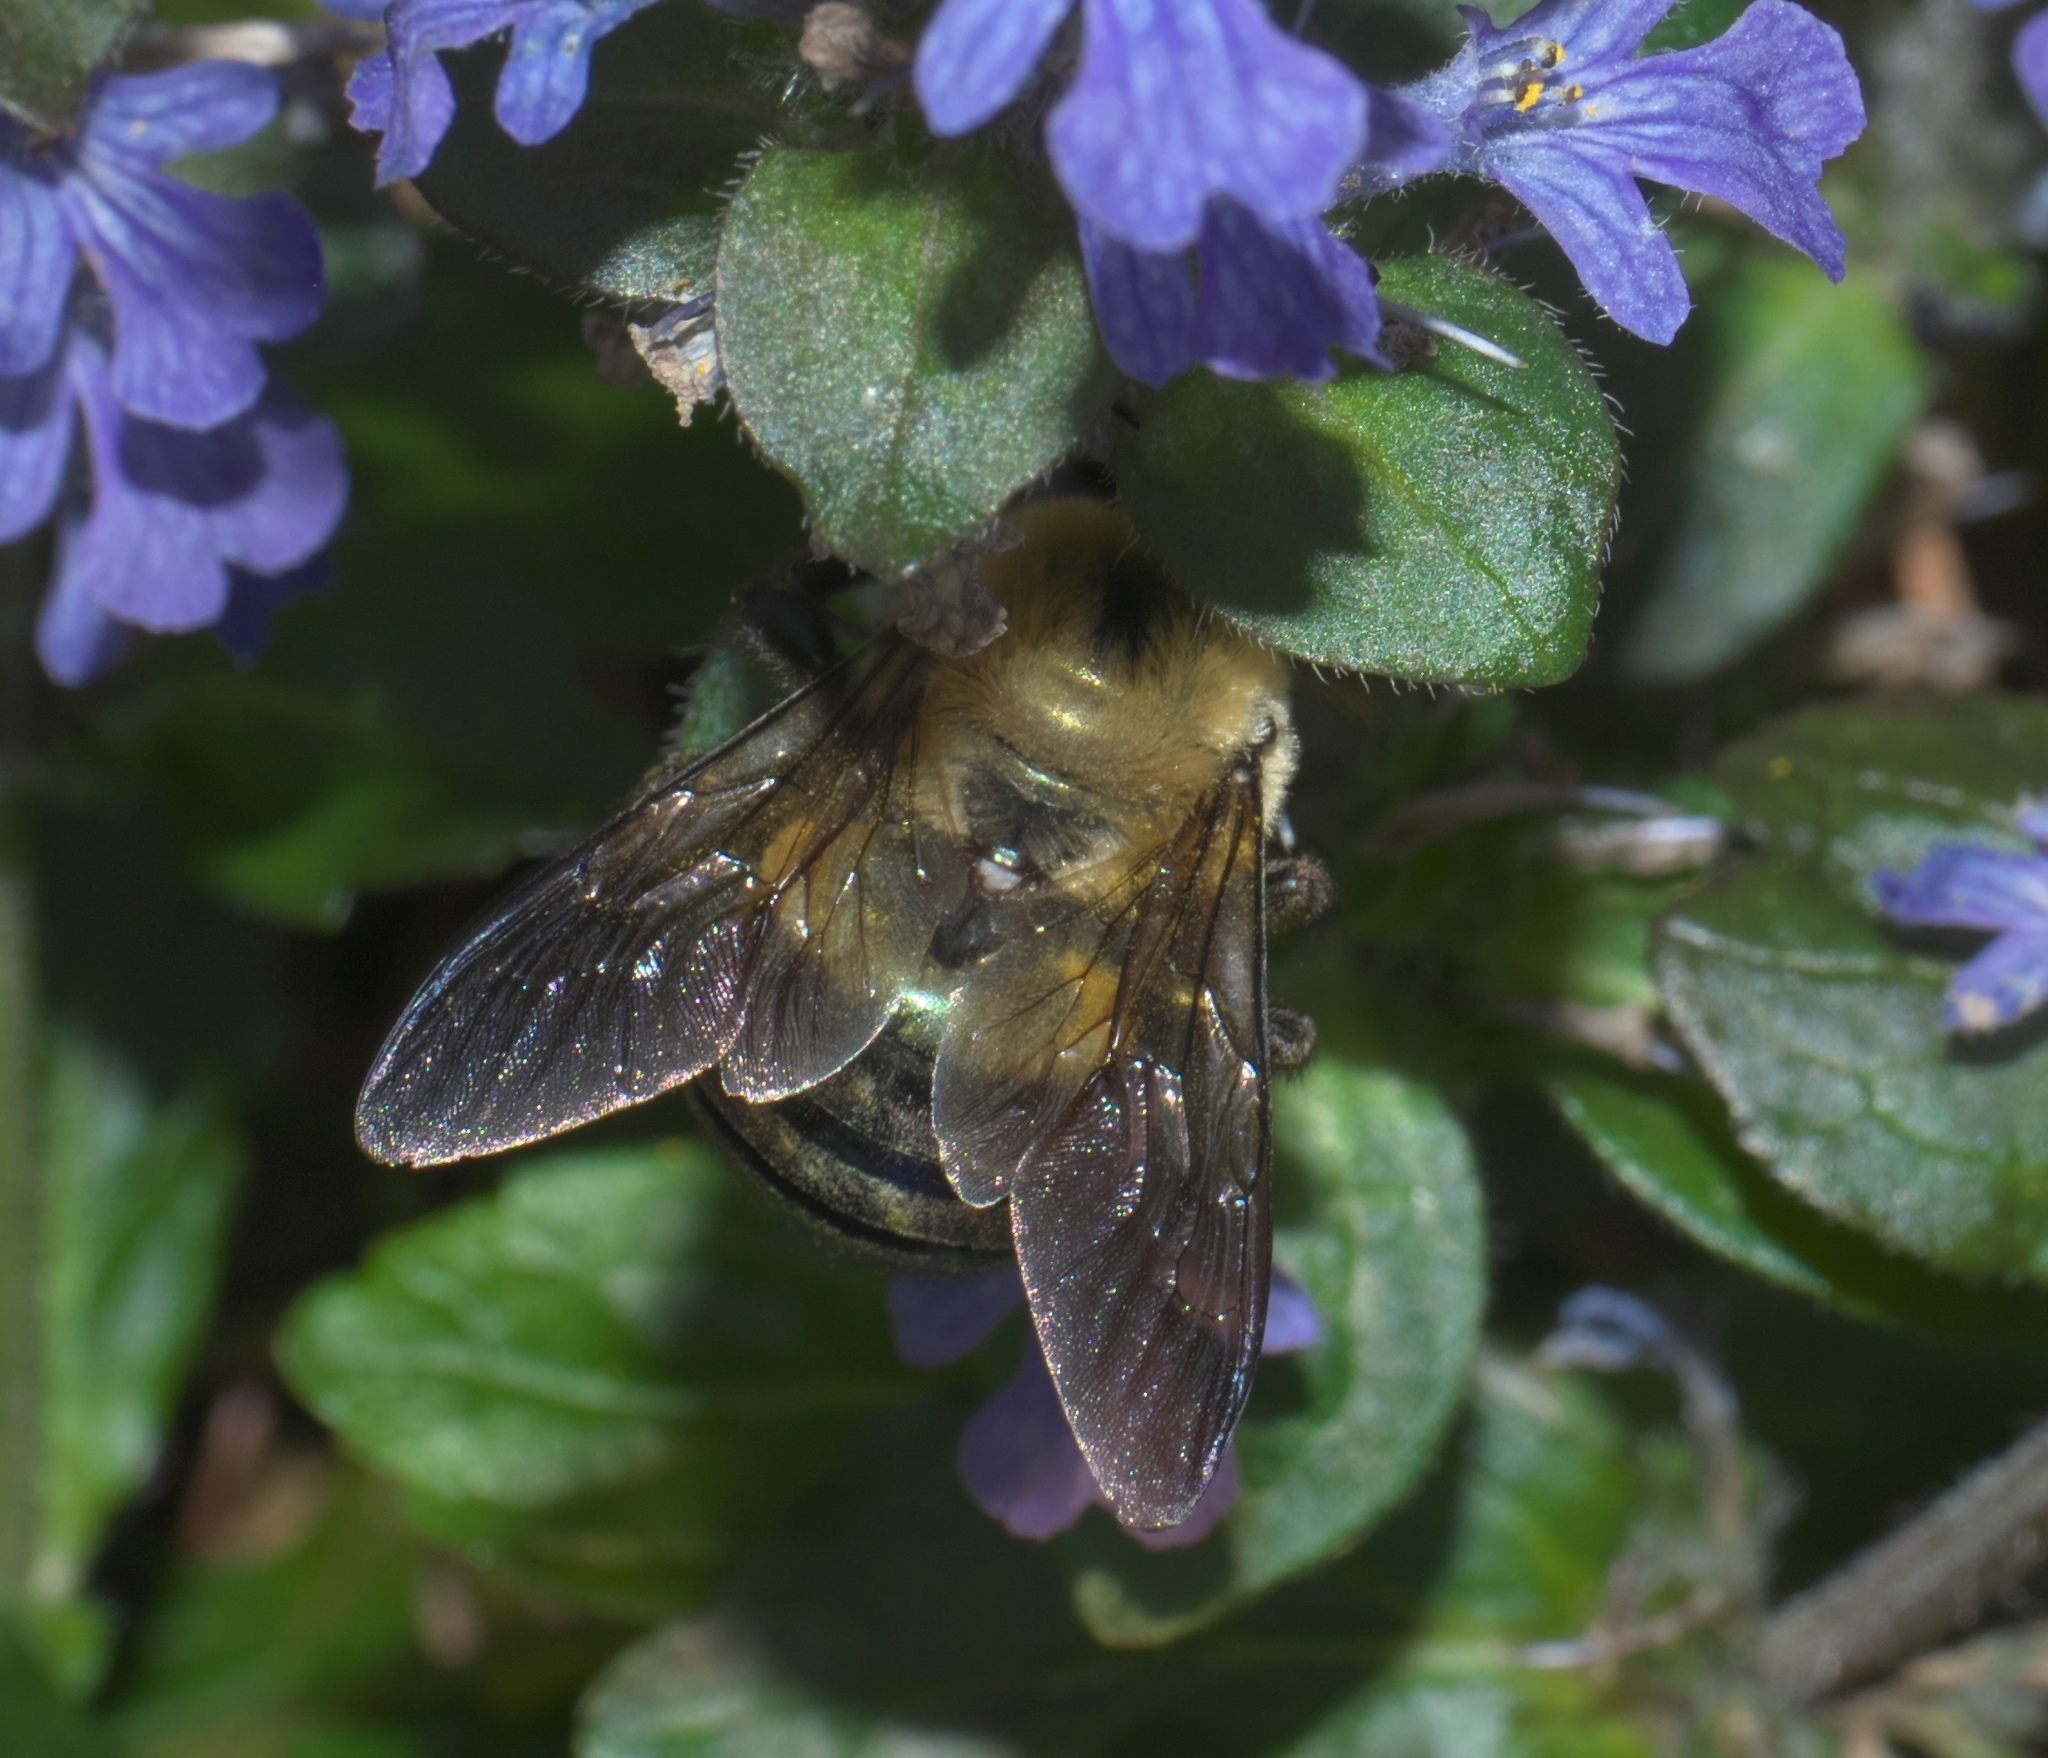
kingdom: Animalia
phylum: Arthropoda
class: Insecta
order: Hymenoptera
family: Apidae
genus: Xylocopa
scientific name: Xylocopa virginica
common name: Carpenter bee
